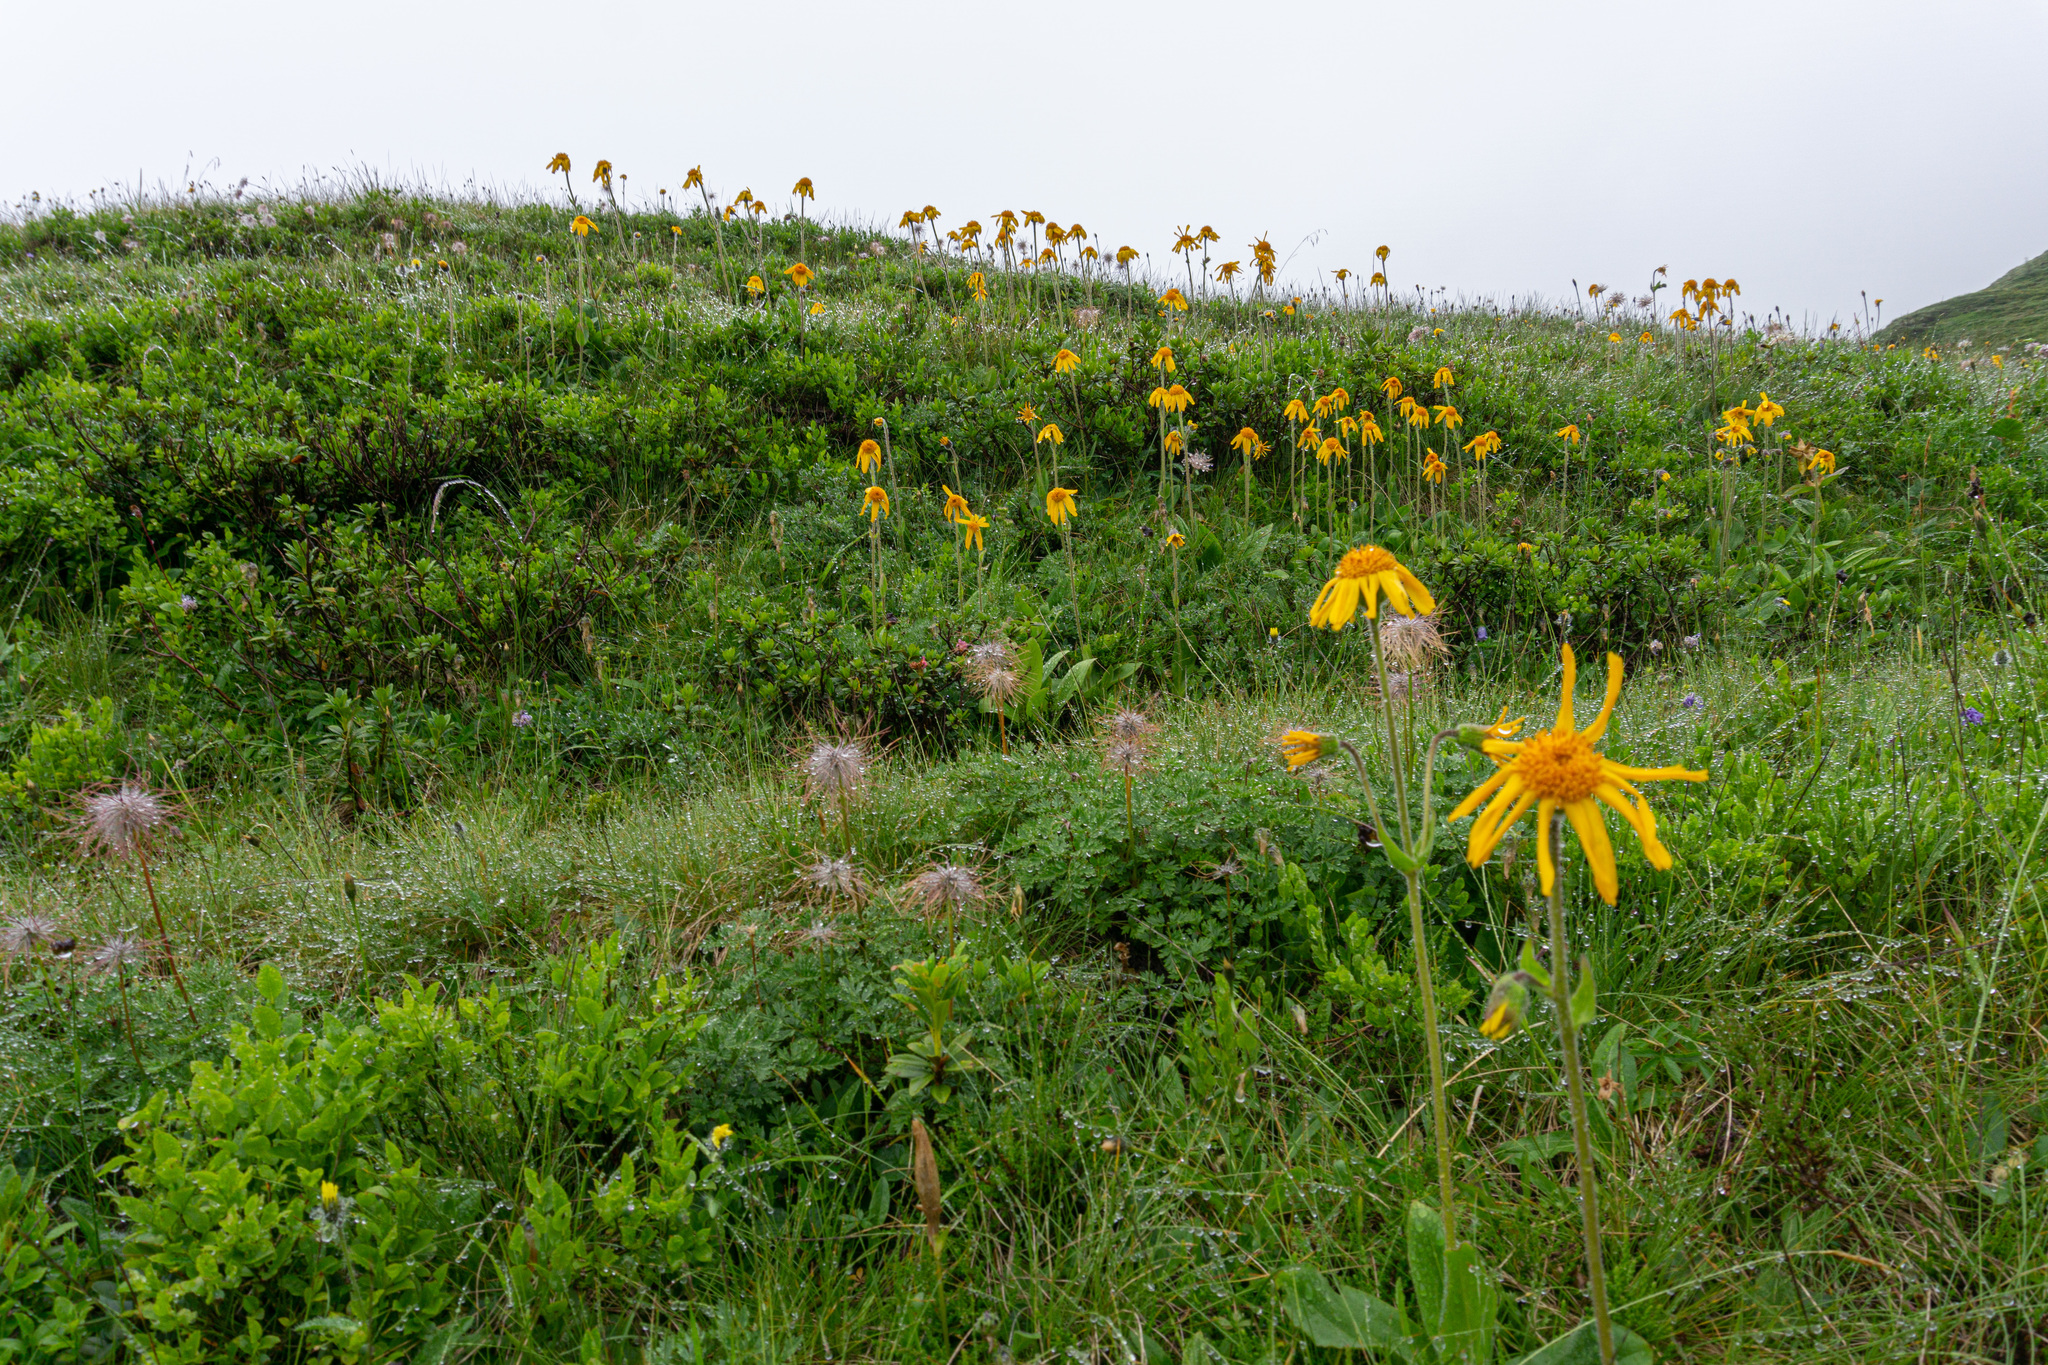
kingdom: Plantae
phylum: Tracheophyta
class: Magnoliopsida
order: Asterales
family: Asteraceae
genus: Arnica
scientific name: Arnica montana
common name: Leopard's bane
